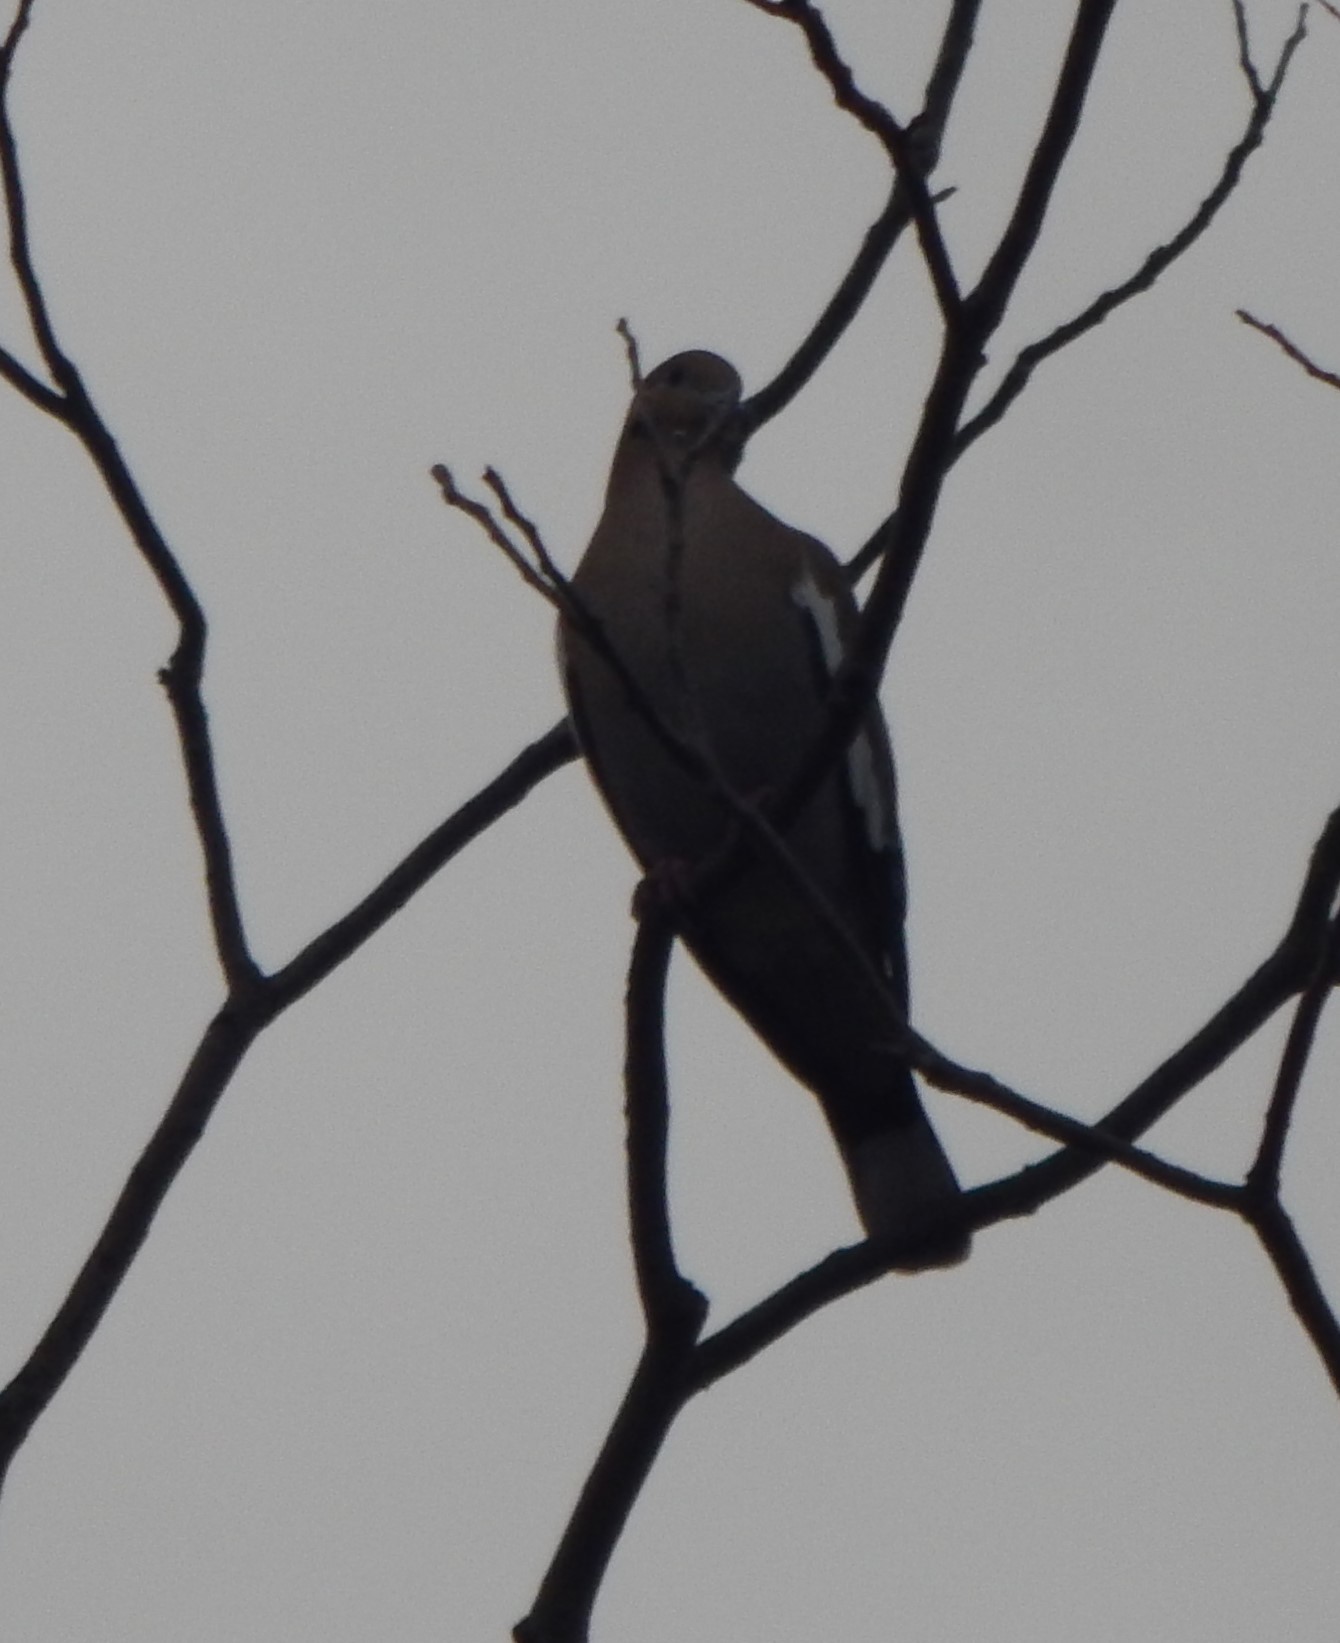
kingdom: Animalia
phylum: Chordata
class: Aves
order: Columbiformes
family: Columbidae
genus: Zenaida
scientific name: Zenaida asiatica
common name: White-winged dove
